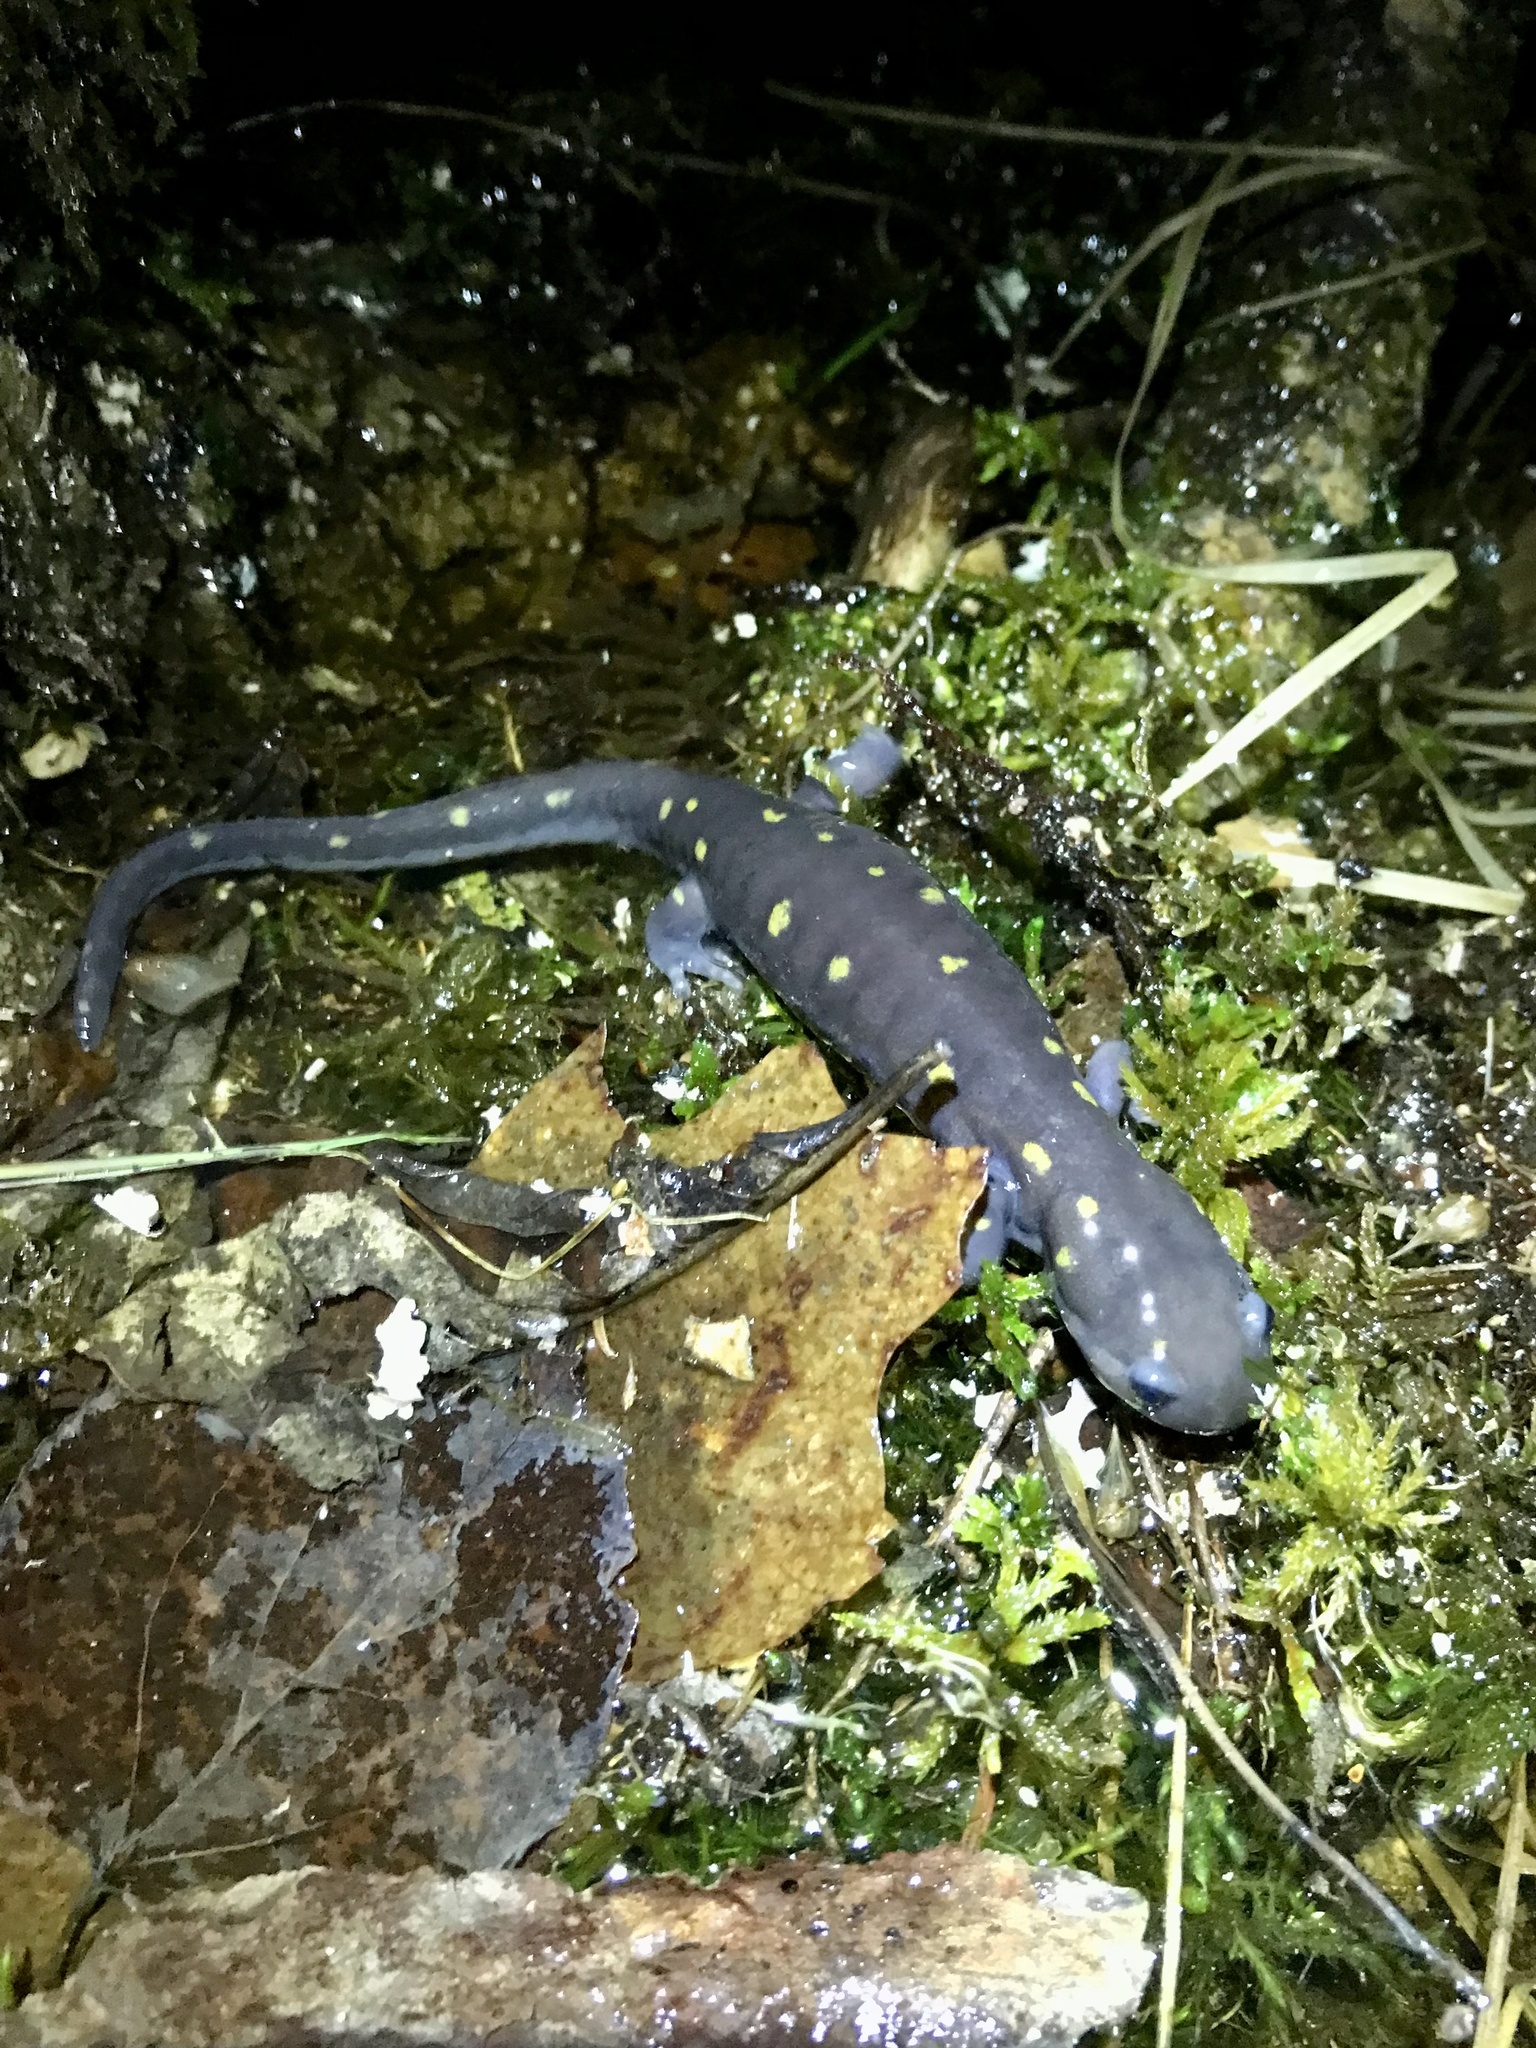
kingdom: Animalia
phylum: Chordata
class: Amphibia
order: Caudata
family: Ambystomatidae
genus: Ambystoma
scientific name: Ambystoma maculatum
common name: Spotted salamander
